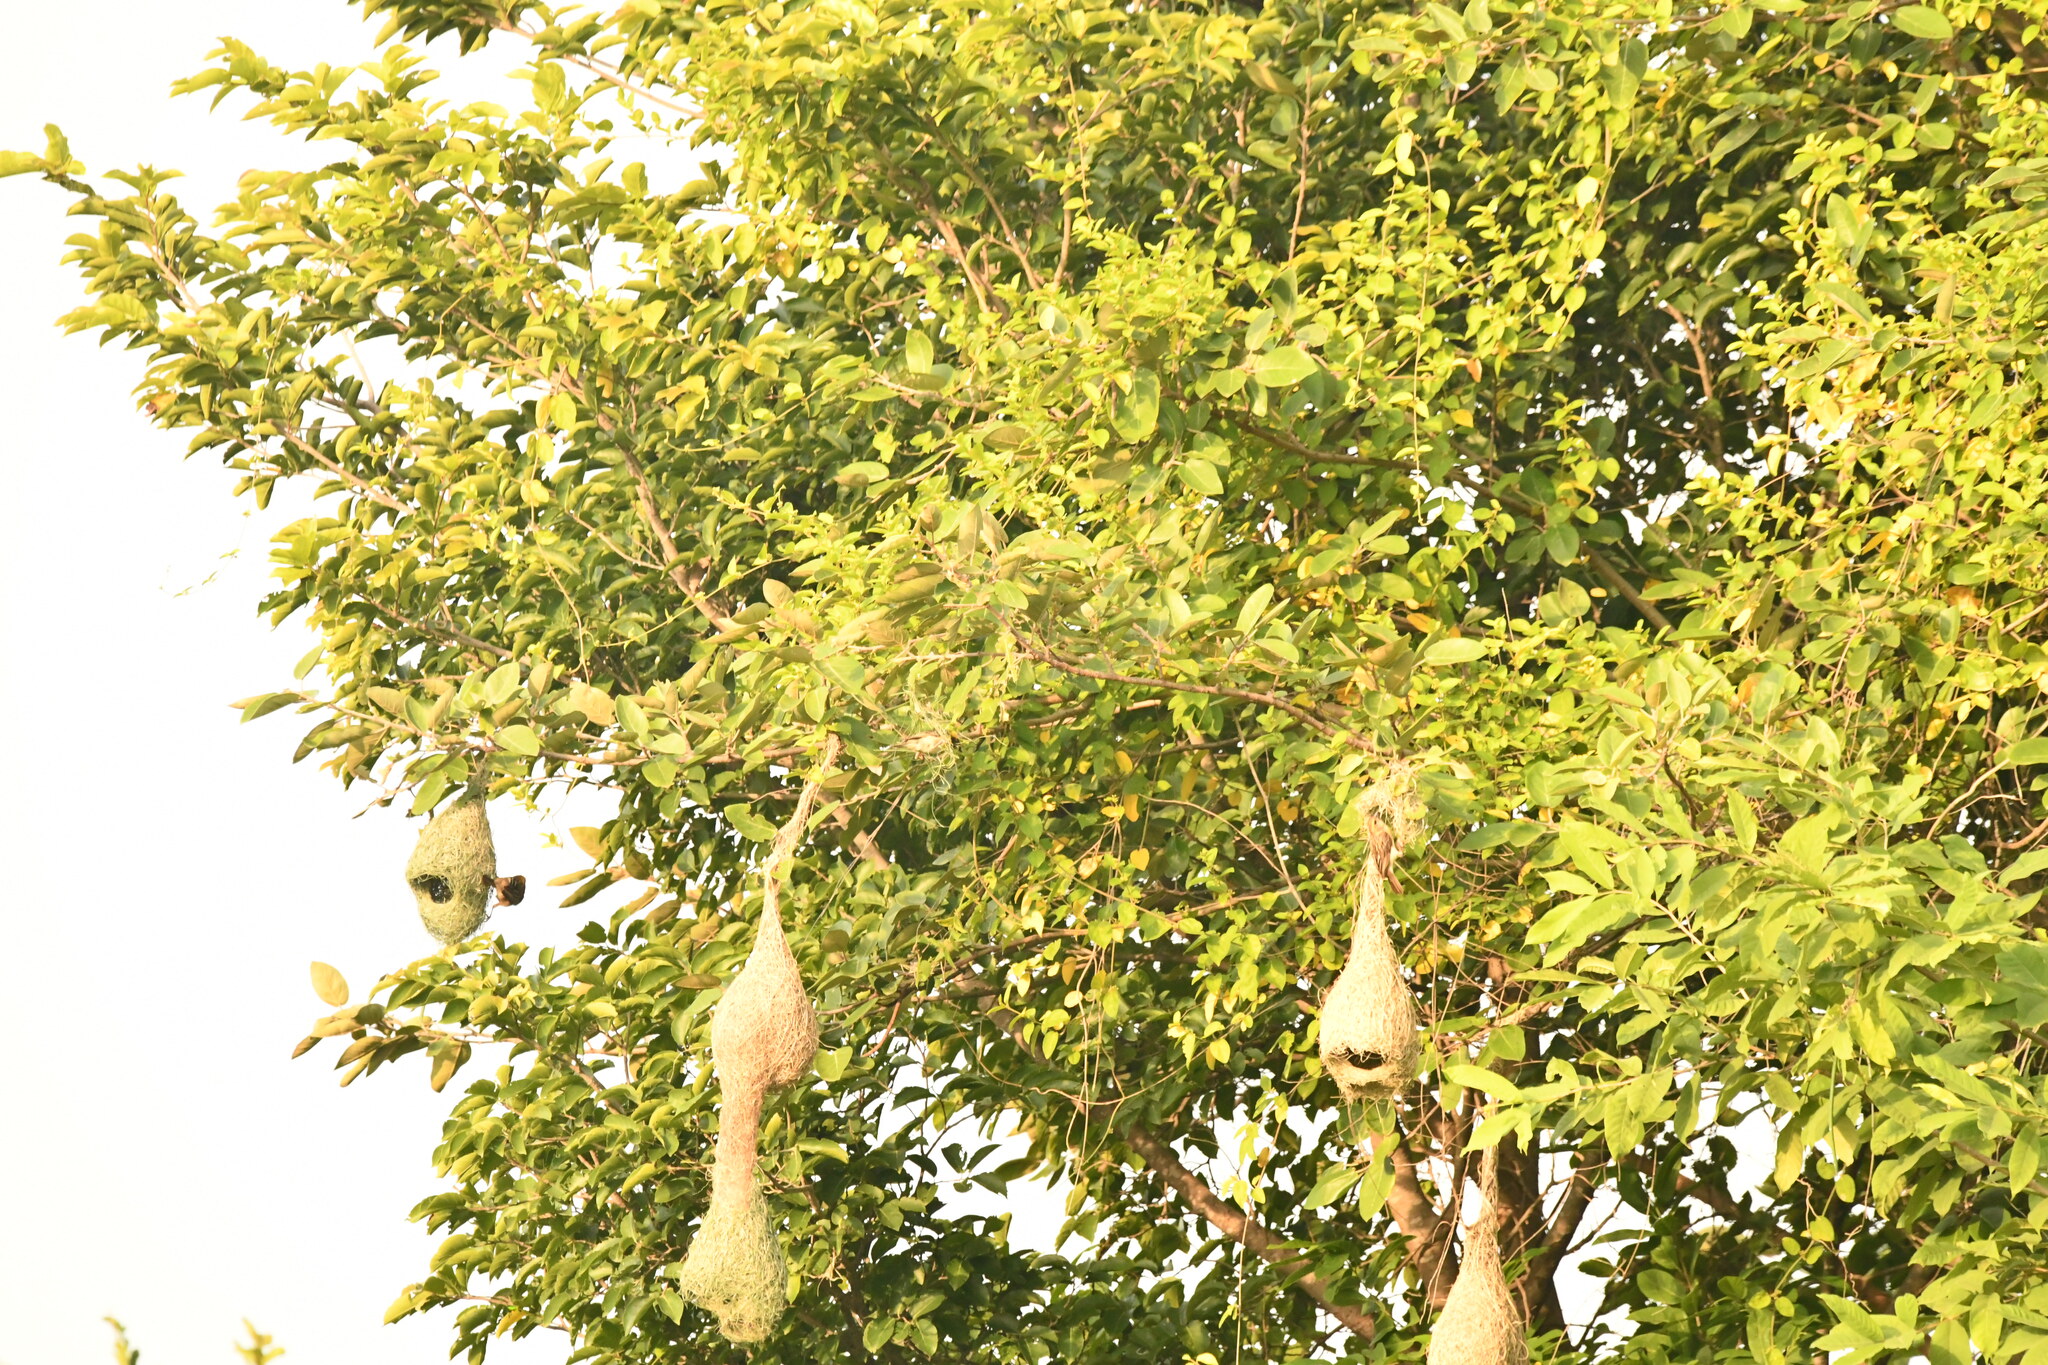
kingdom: Animalia
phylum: Chordata
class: Aves
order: Passeriformes
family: Ploceidae
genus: Ploceus
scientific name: Ploceus philippinus
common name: Baya weaver
